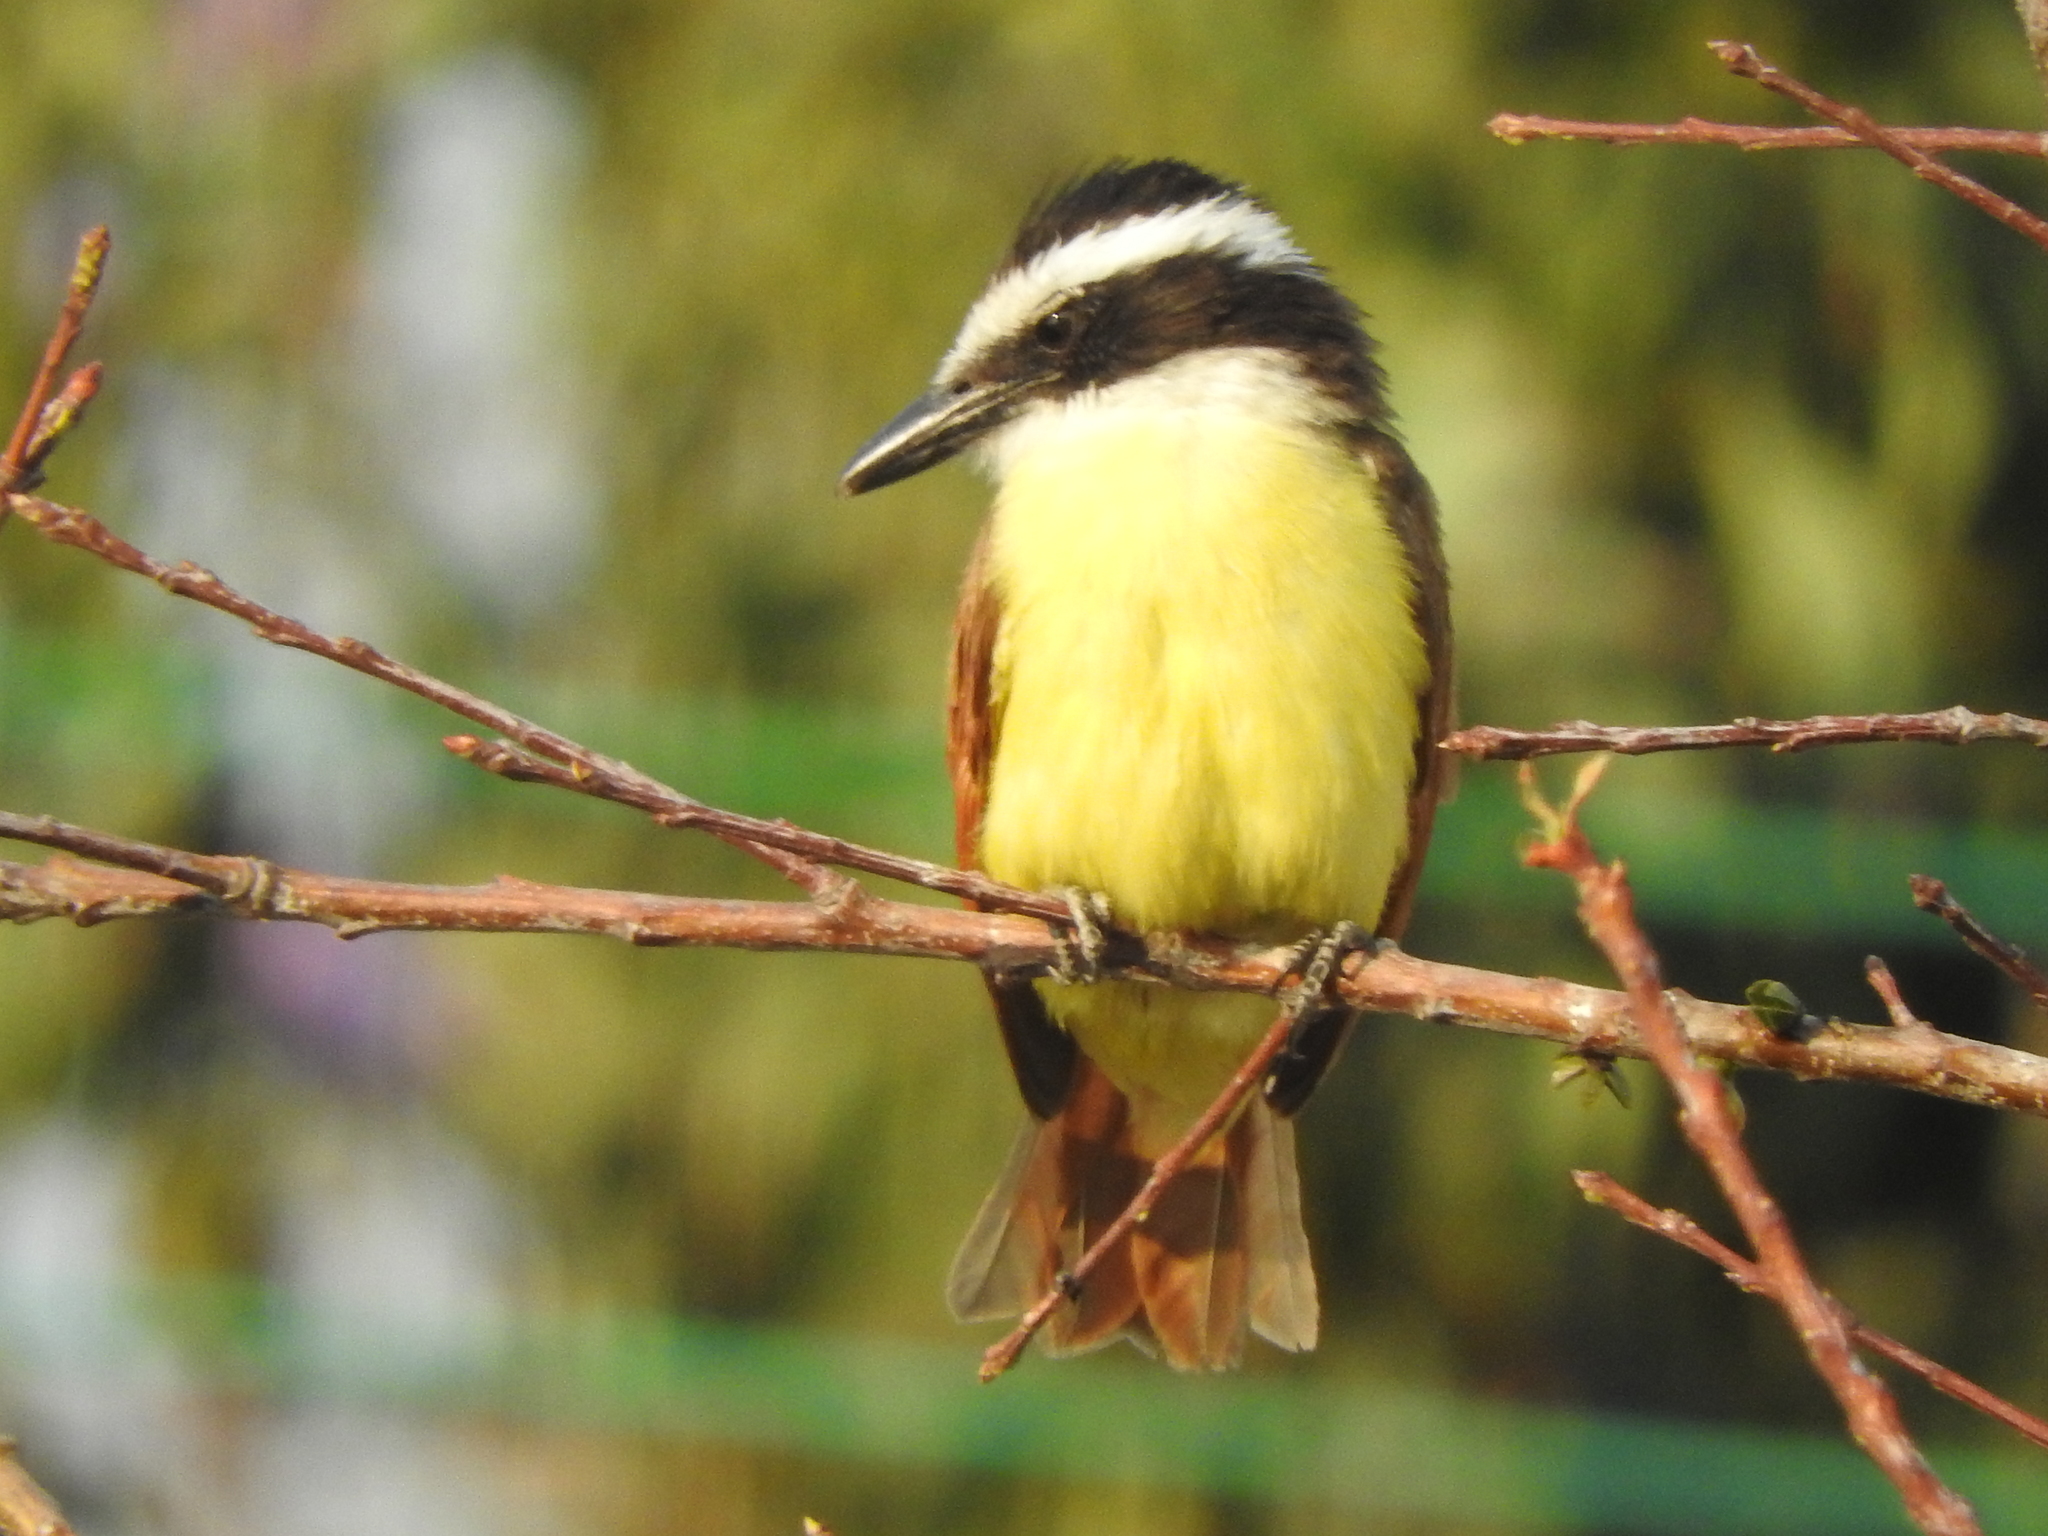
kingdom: Animalia
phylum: Chordata
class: Aves
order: Passeriformes
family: Tyrannidae
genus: Pitangus
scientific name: Pitangus sulphuratus
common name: Great kiskadee
